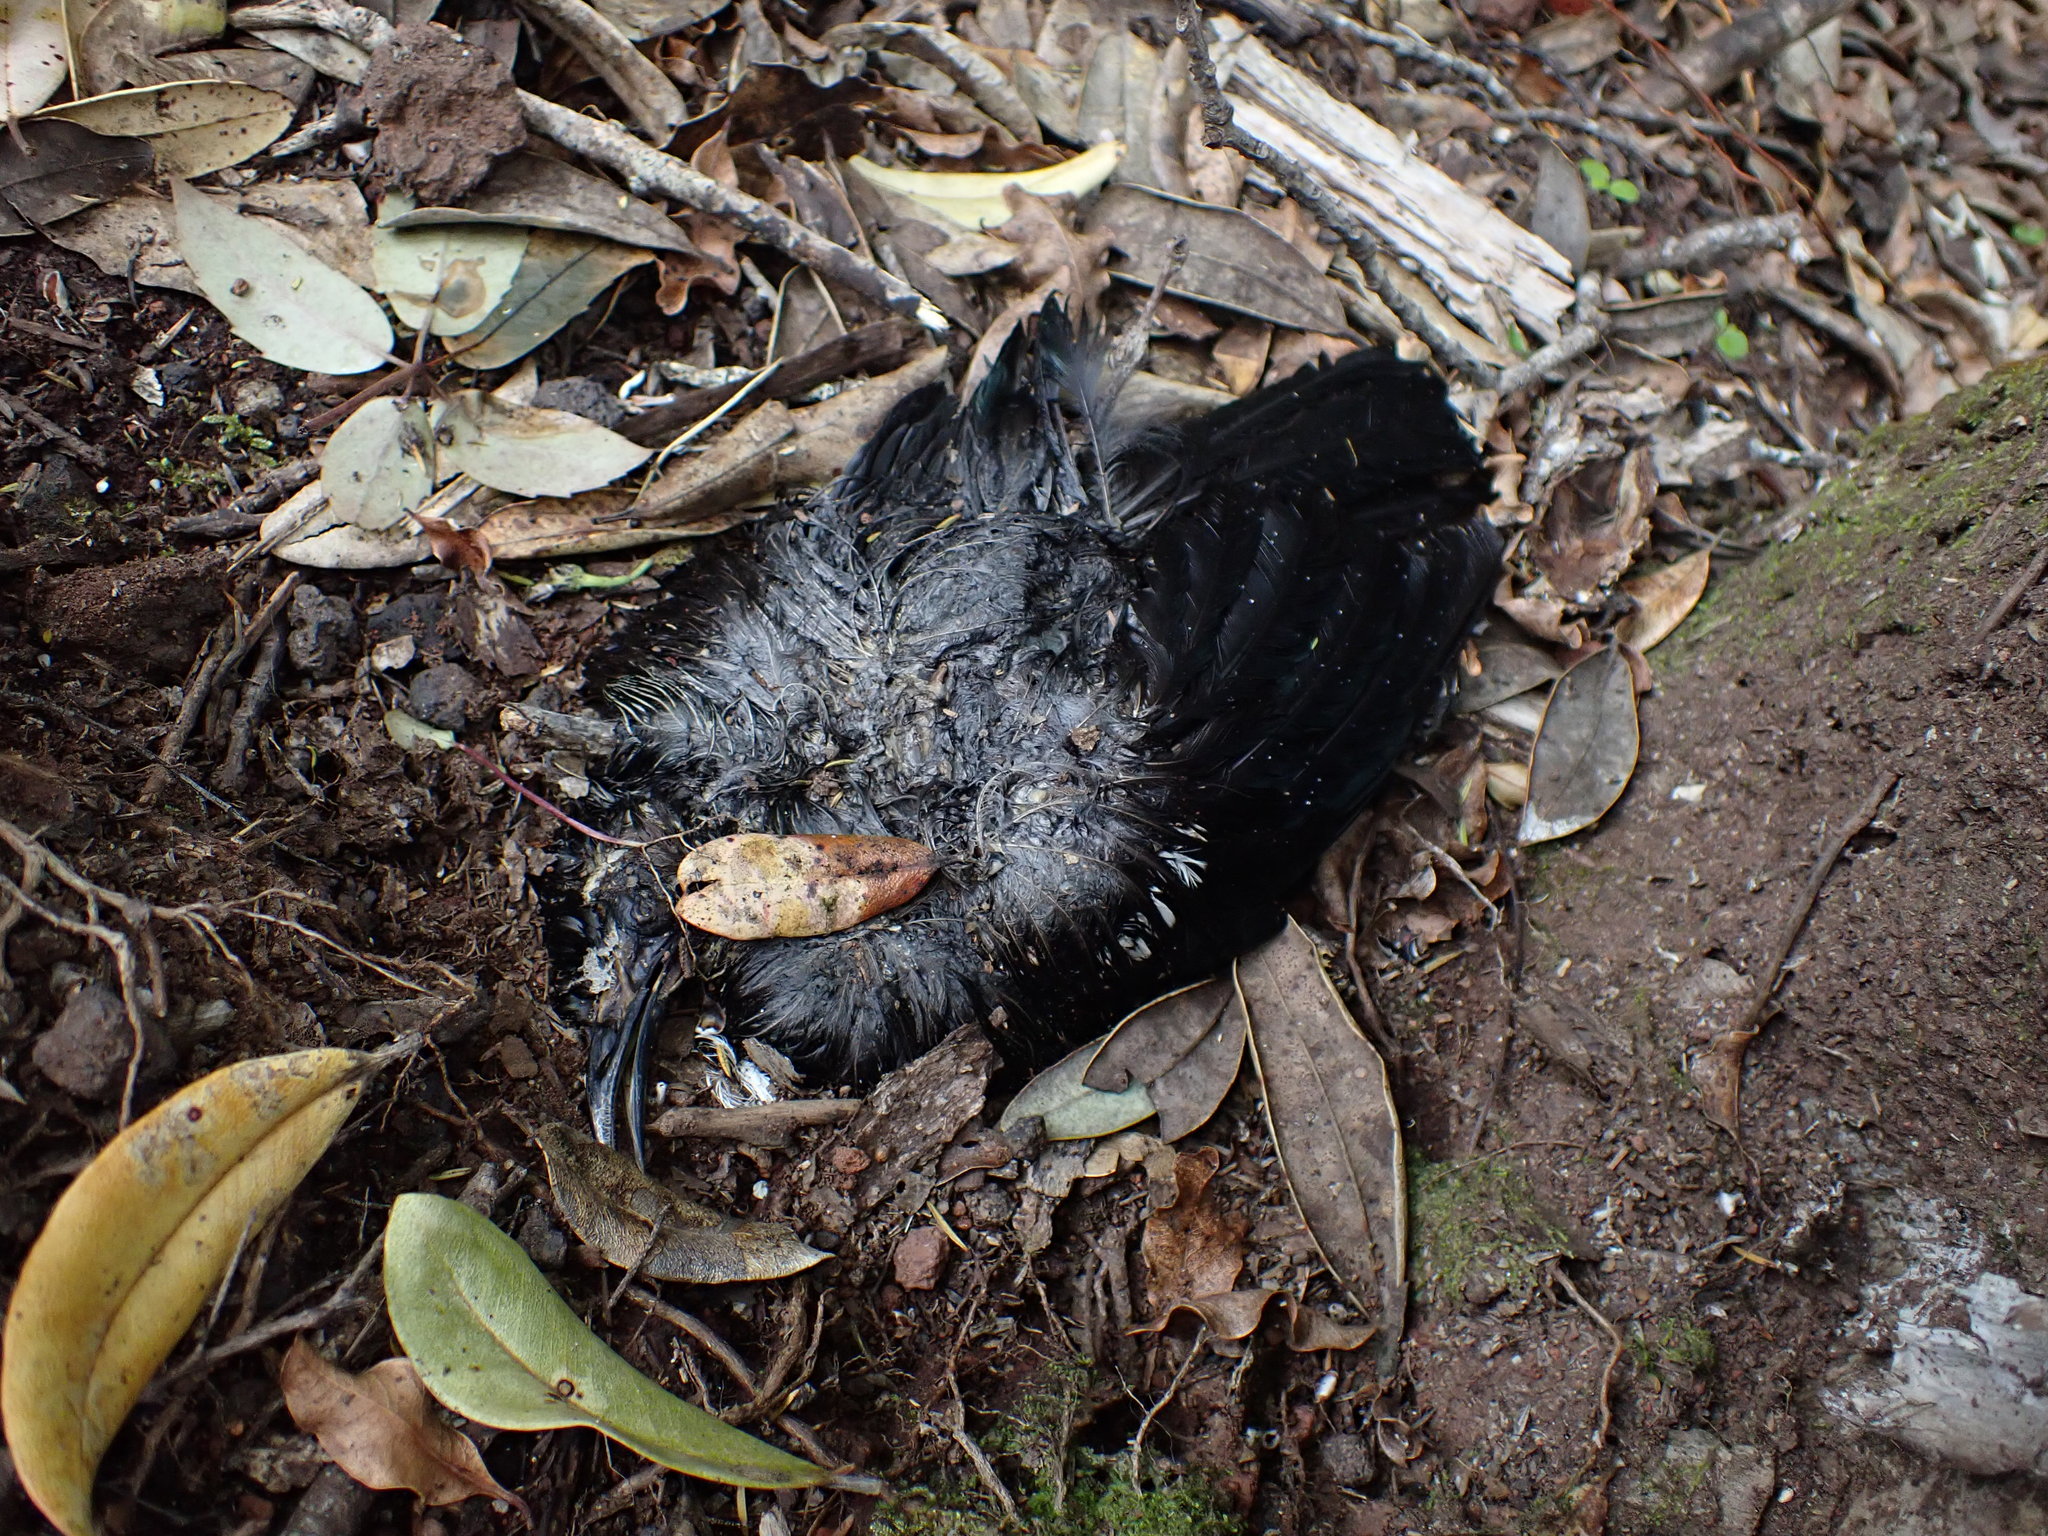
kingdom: Animalia
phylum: Chordata
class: Aves
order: Passeriformes
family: Meliphagidae
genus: Prosthemadera
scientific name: Prosthemadera novaeseelandiae
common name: Tui
